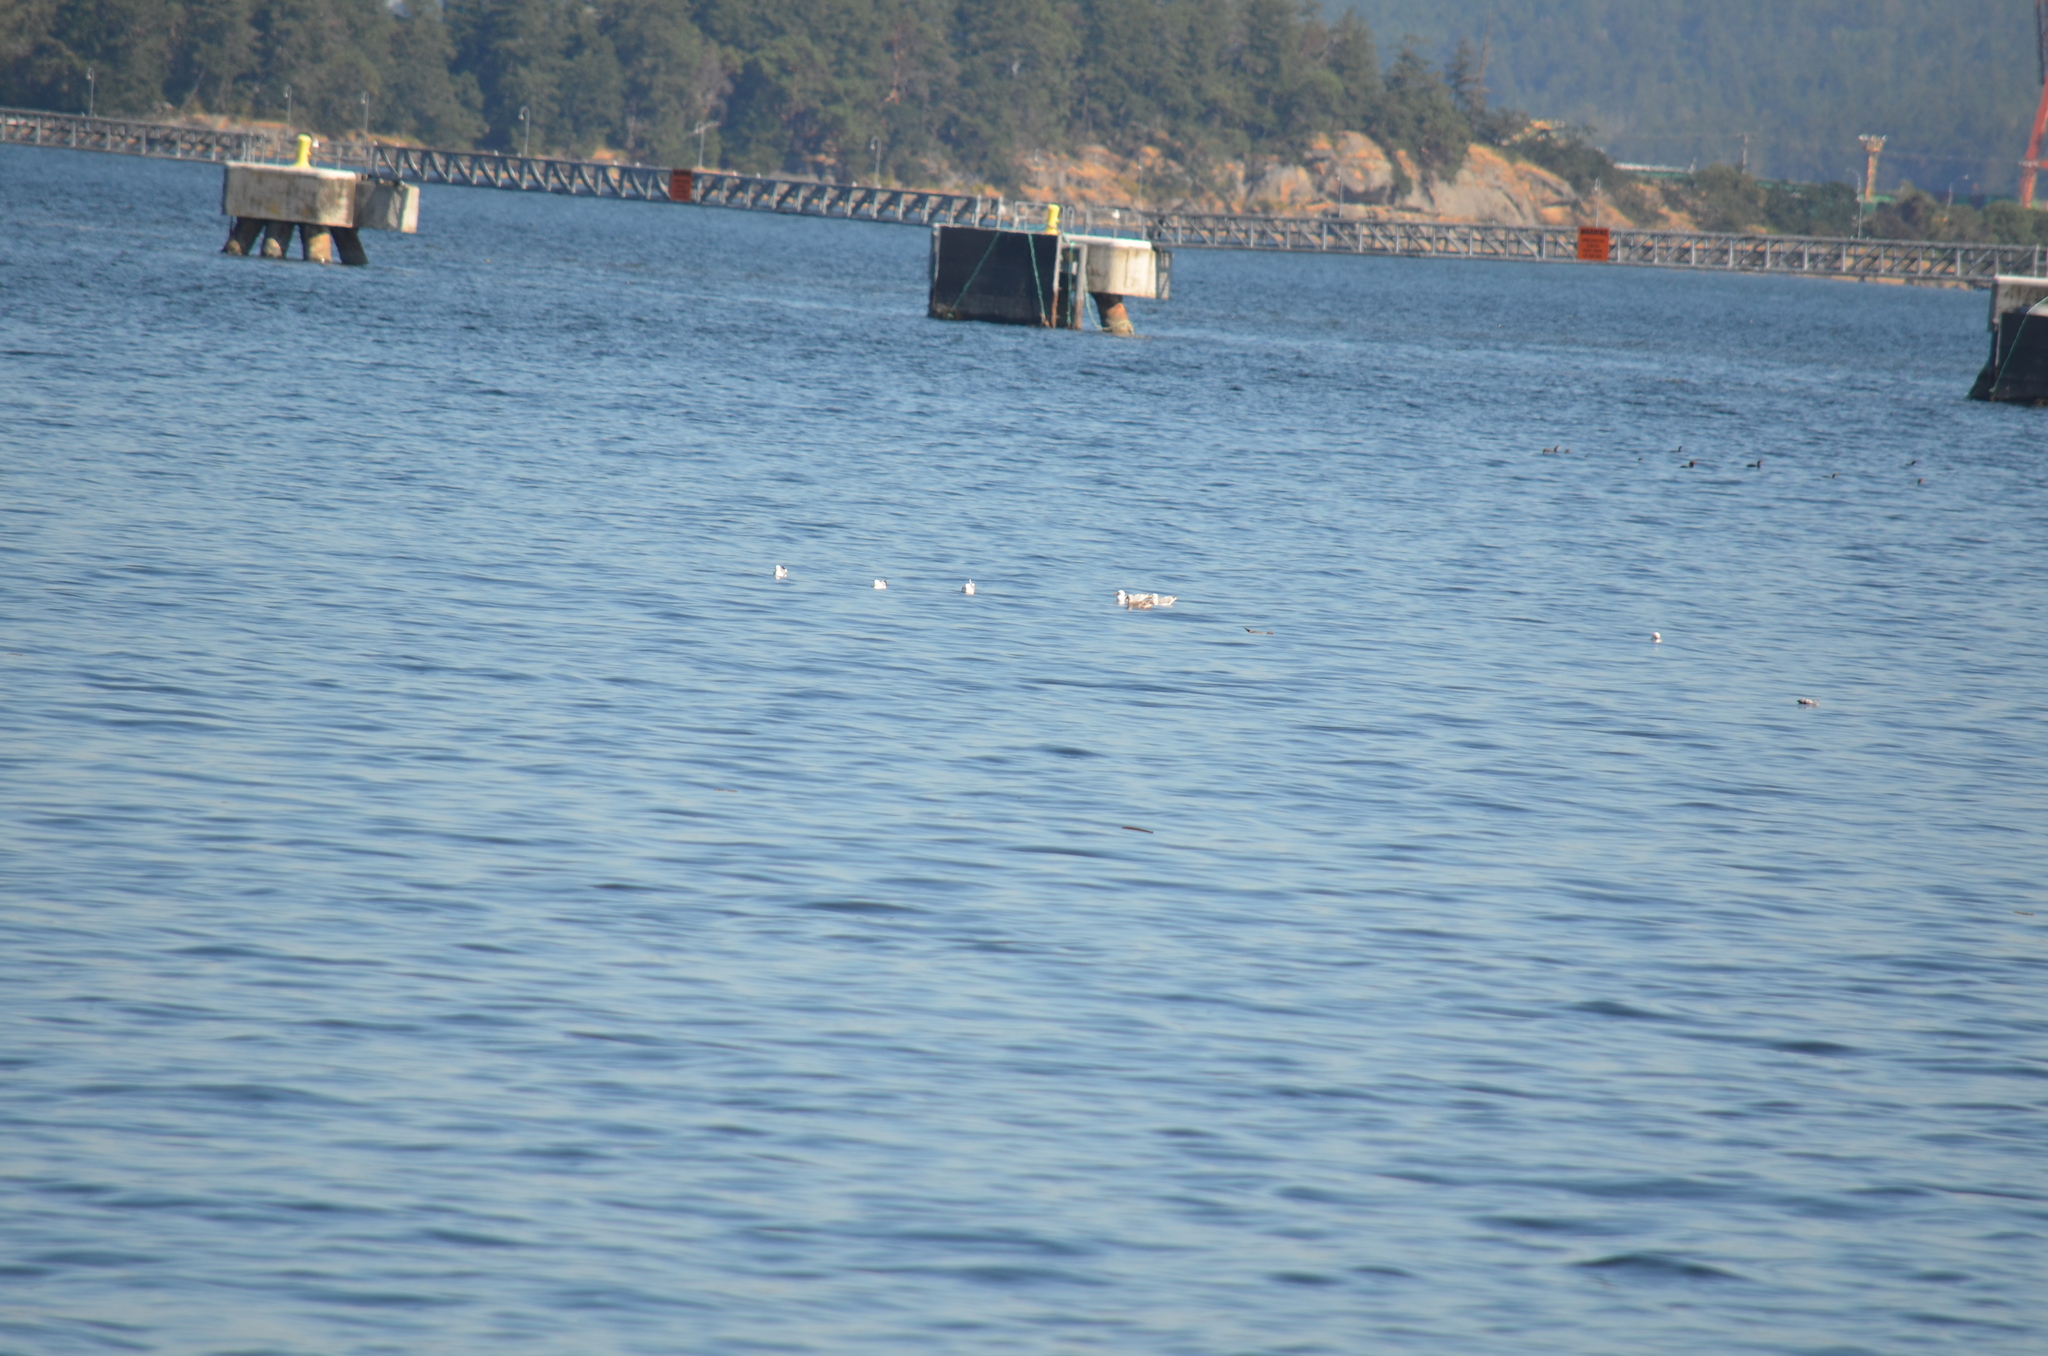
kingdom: Animalia
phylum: Chordata
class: Aves
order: Suliformes
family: Phalacrocoracidae
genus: Phalacrocorax
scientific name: Phalacrocorax auritus
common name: Double-crested cormorant
